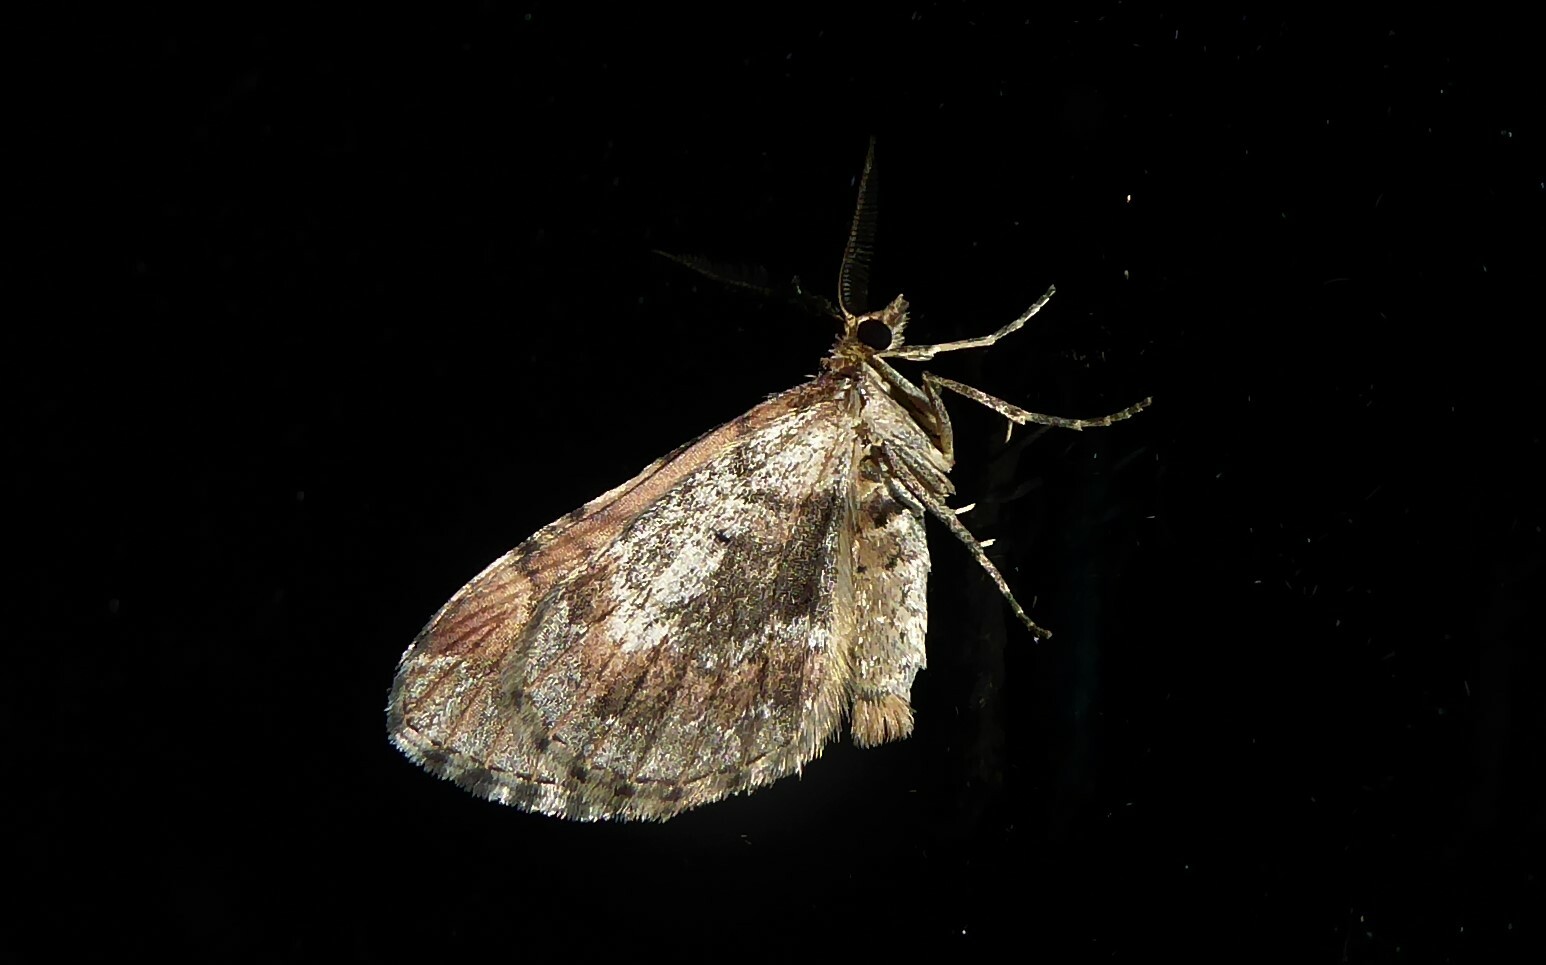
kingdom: Animalia
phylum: Arthropoda
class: Insecta
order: Lepidoptera
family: Geometridae
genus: Asaphodes
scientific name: Asaphodes aegrota
